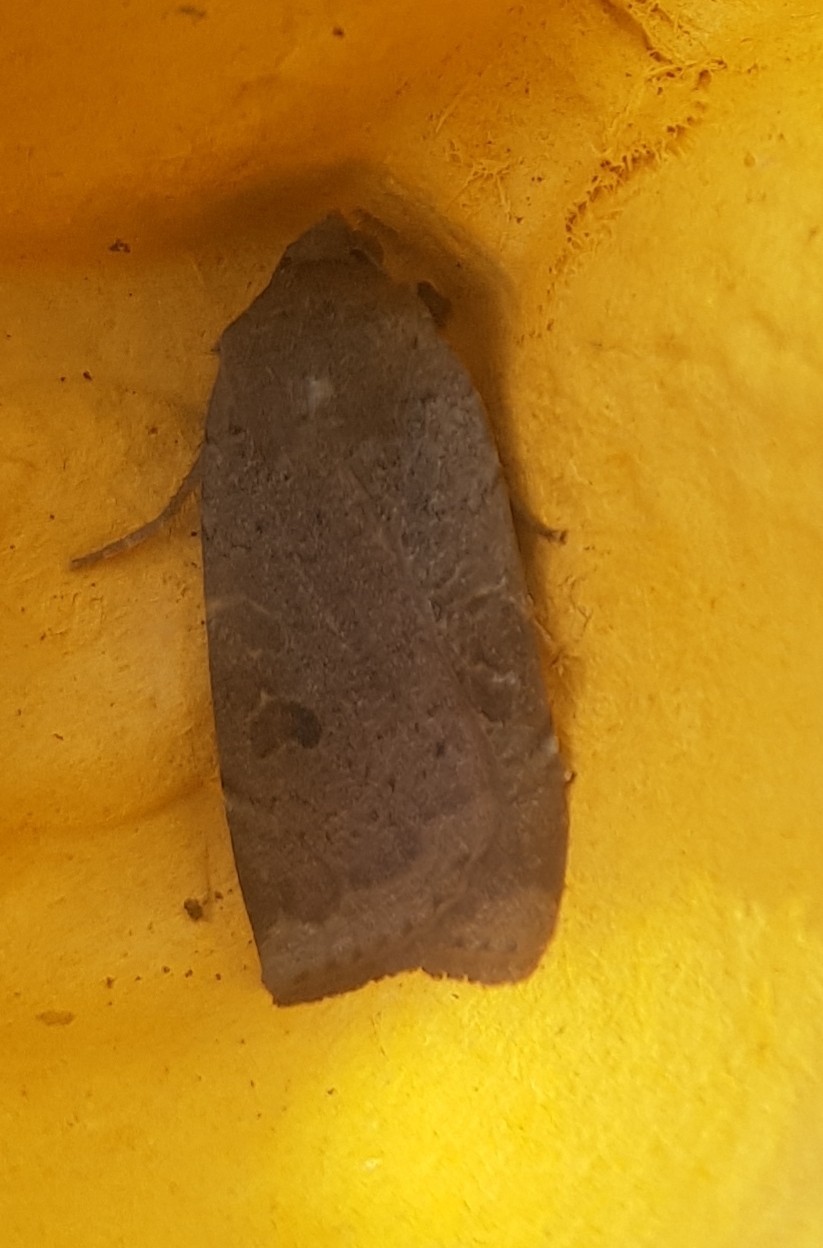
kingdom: Animalia
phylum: Arthropoda
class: Insecta
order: Lepidoptera
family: Noctuidae
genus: Noctua
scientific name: Noctua comes
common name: Lesser yellow underwing
